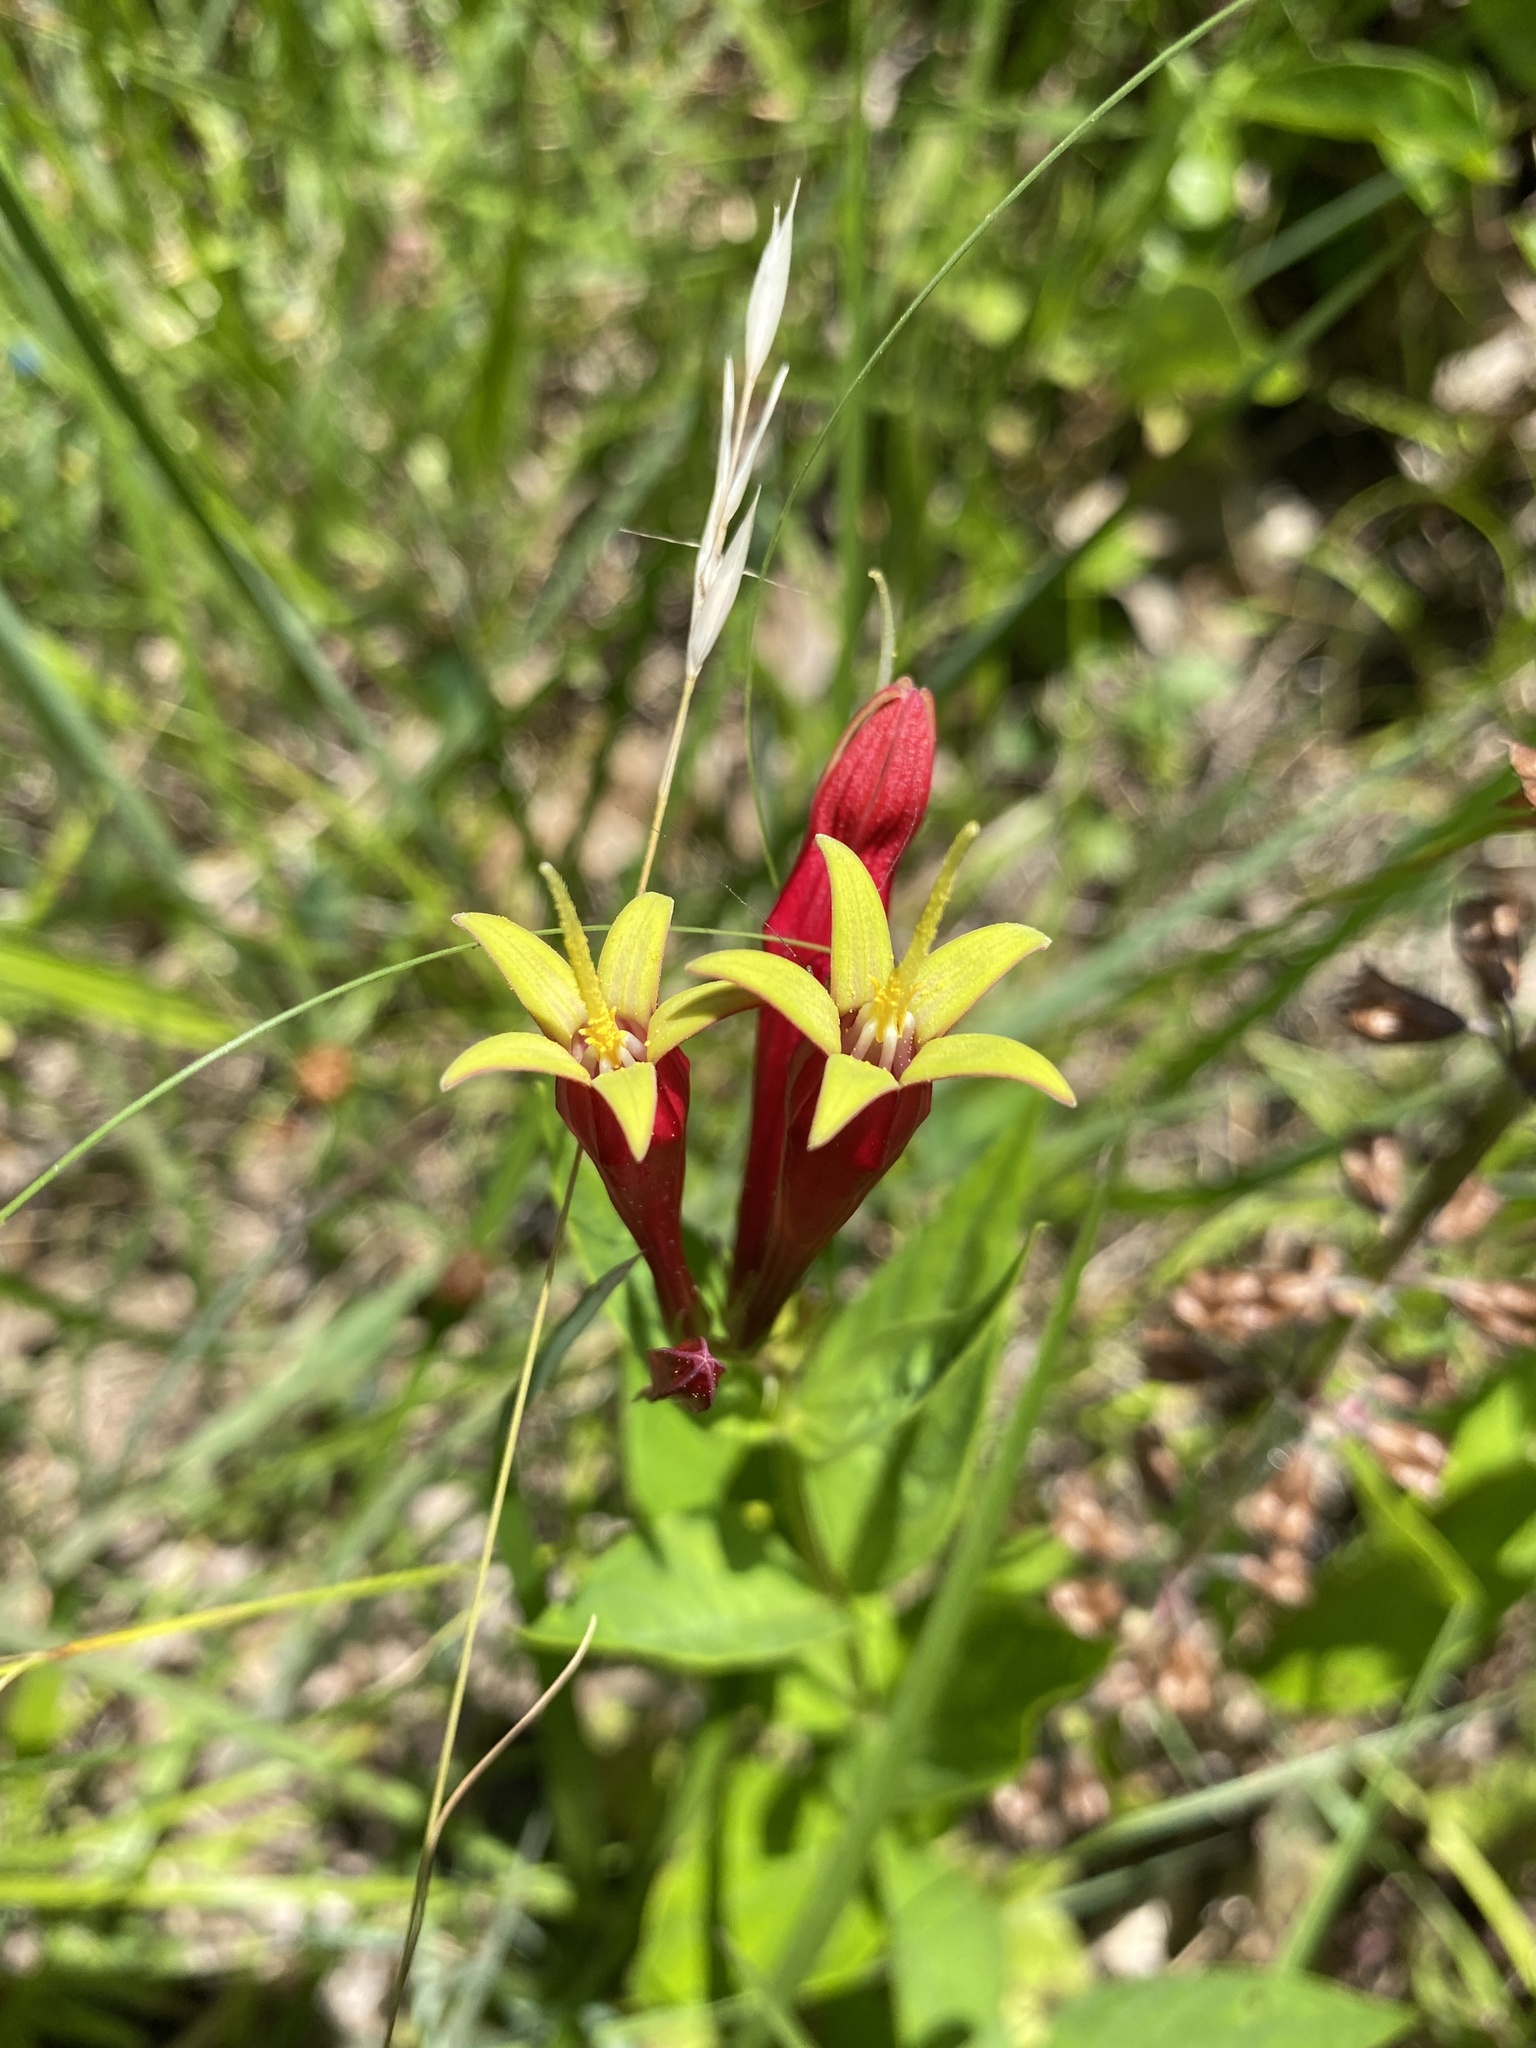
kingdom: Plantae
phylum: Tracheophyta
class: Magnoliopsida
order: Gentianales
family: Loganiaceae
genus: Spigelia
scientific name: Spigelia marilandica
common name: Indian-pink
